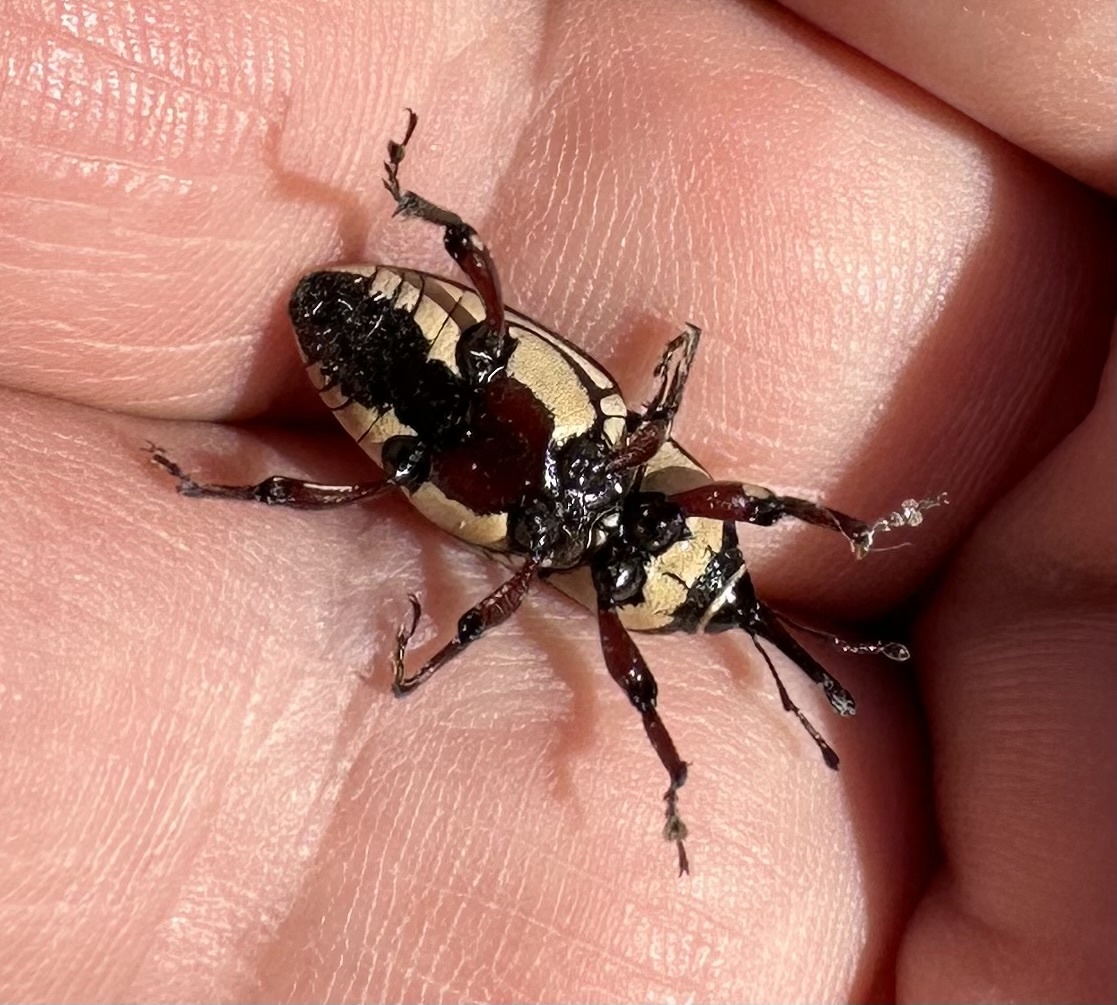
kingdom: Animalia
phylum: Arthropoda
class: Insecta
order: Coleoptera
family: Dryophthoridae
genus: Sphenophorus
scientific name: Sphenophorus aequalis
